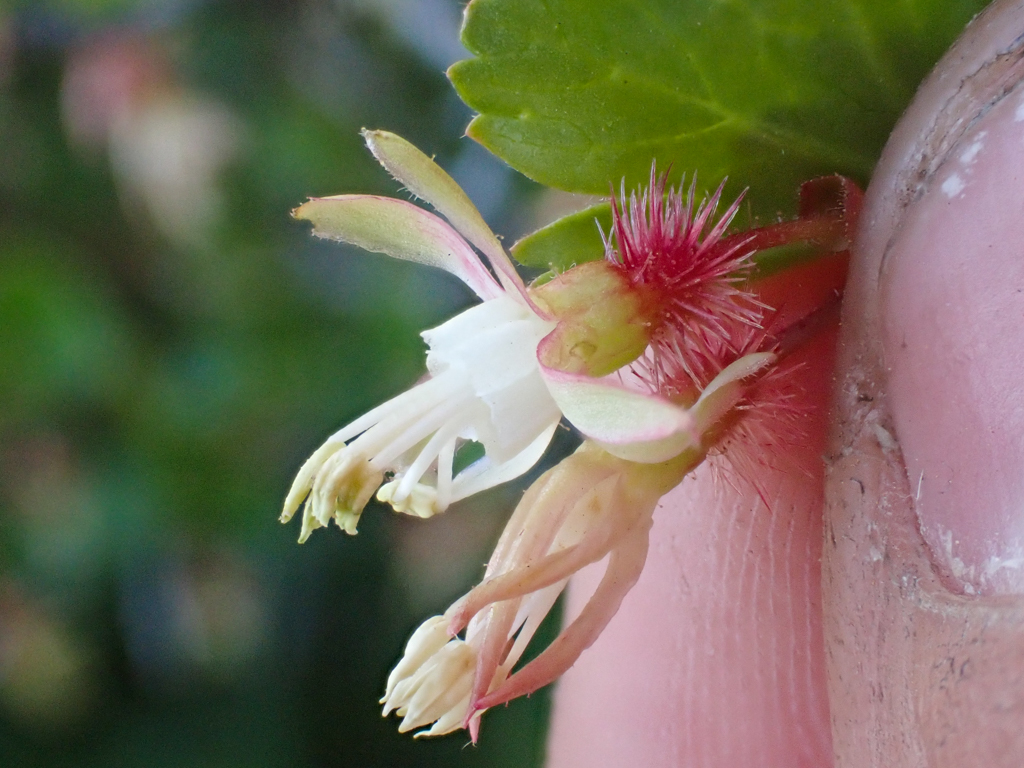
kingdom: Plantae
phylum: Tracheophyta
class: Magnoliopsida
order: Saxifragales
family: Grossulariaceae
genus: Ribes
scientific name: Ribes californicum
